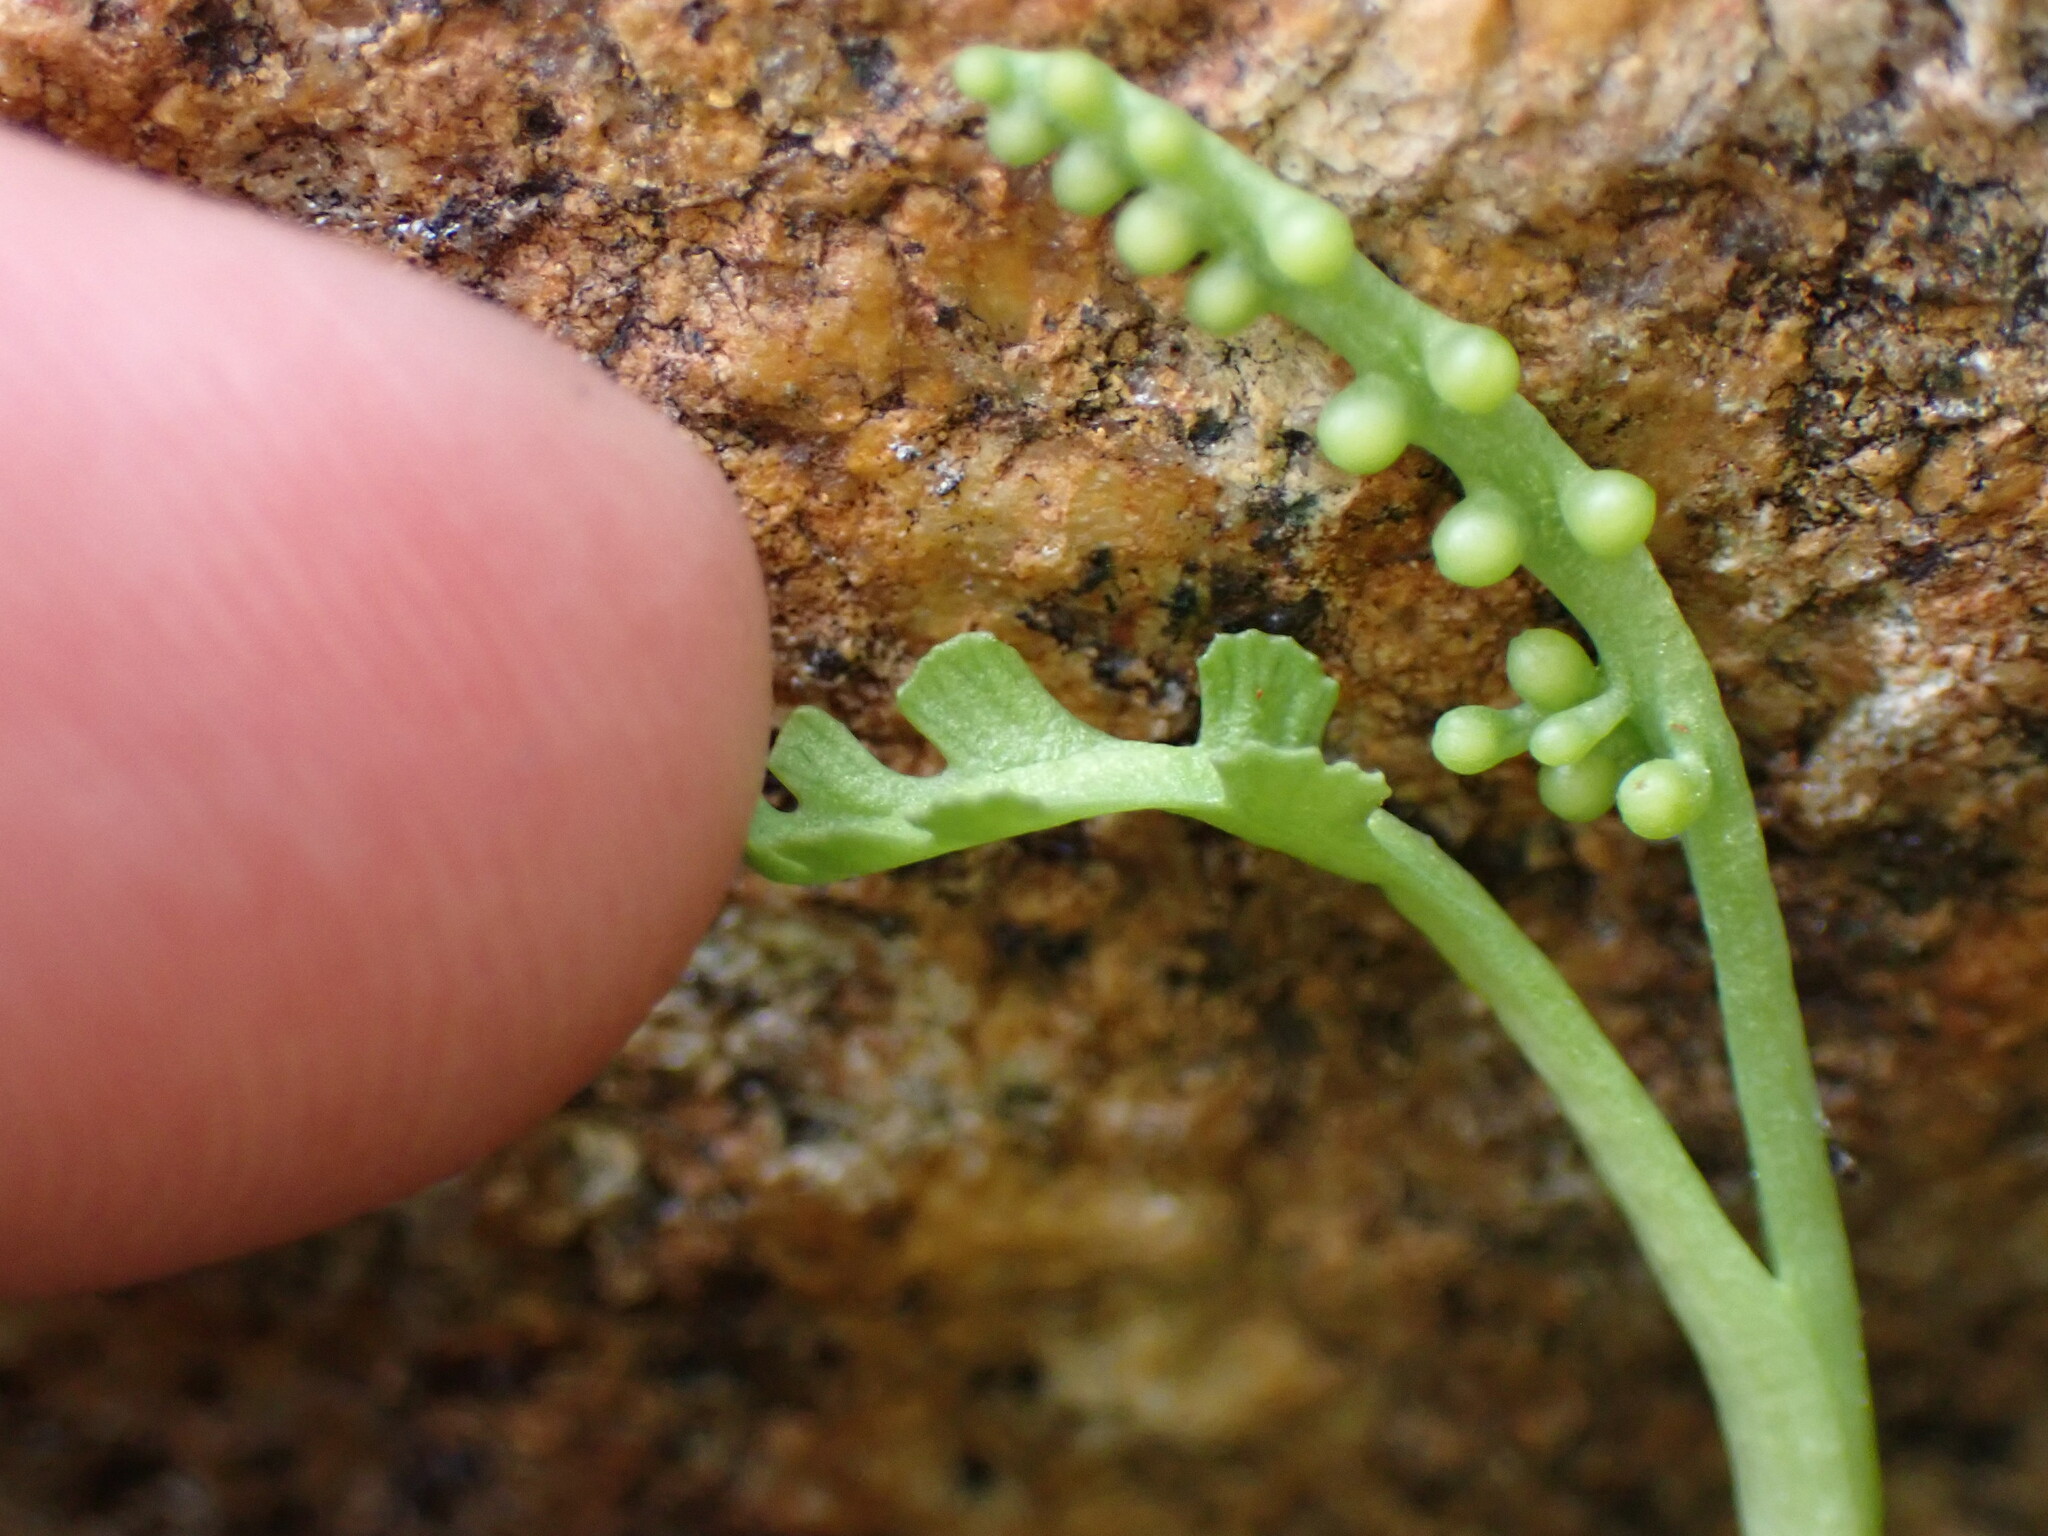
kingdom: Plantae
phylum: Tracheophyta
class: Polypodiopsida
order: Ophioglossales
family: Ophioglossaceae
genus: Botrychium
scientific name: Botrychium montanum
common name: Mountain moonwort
